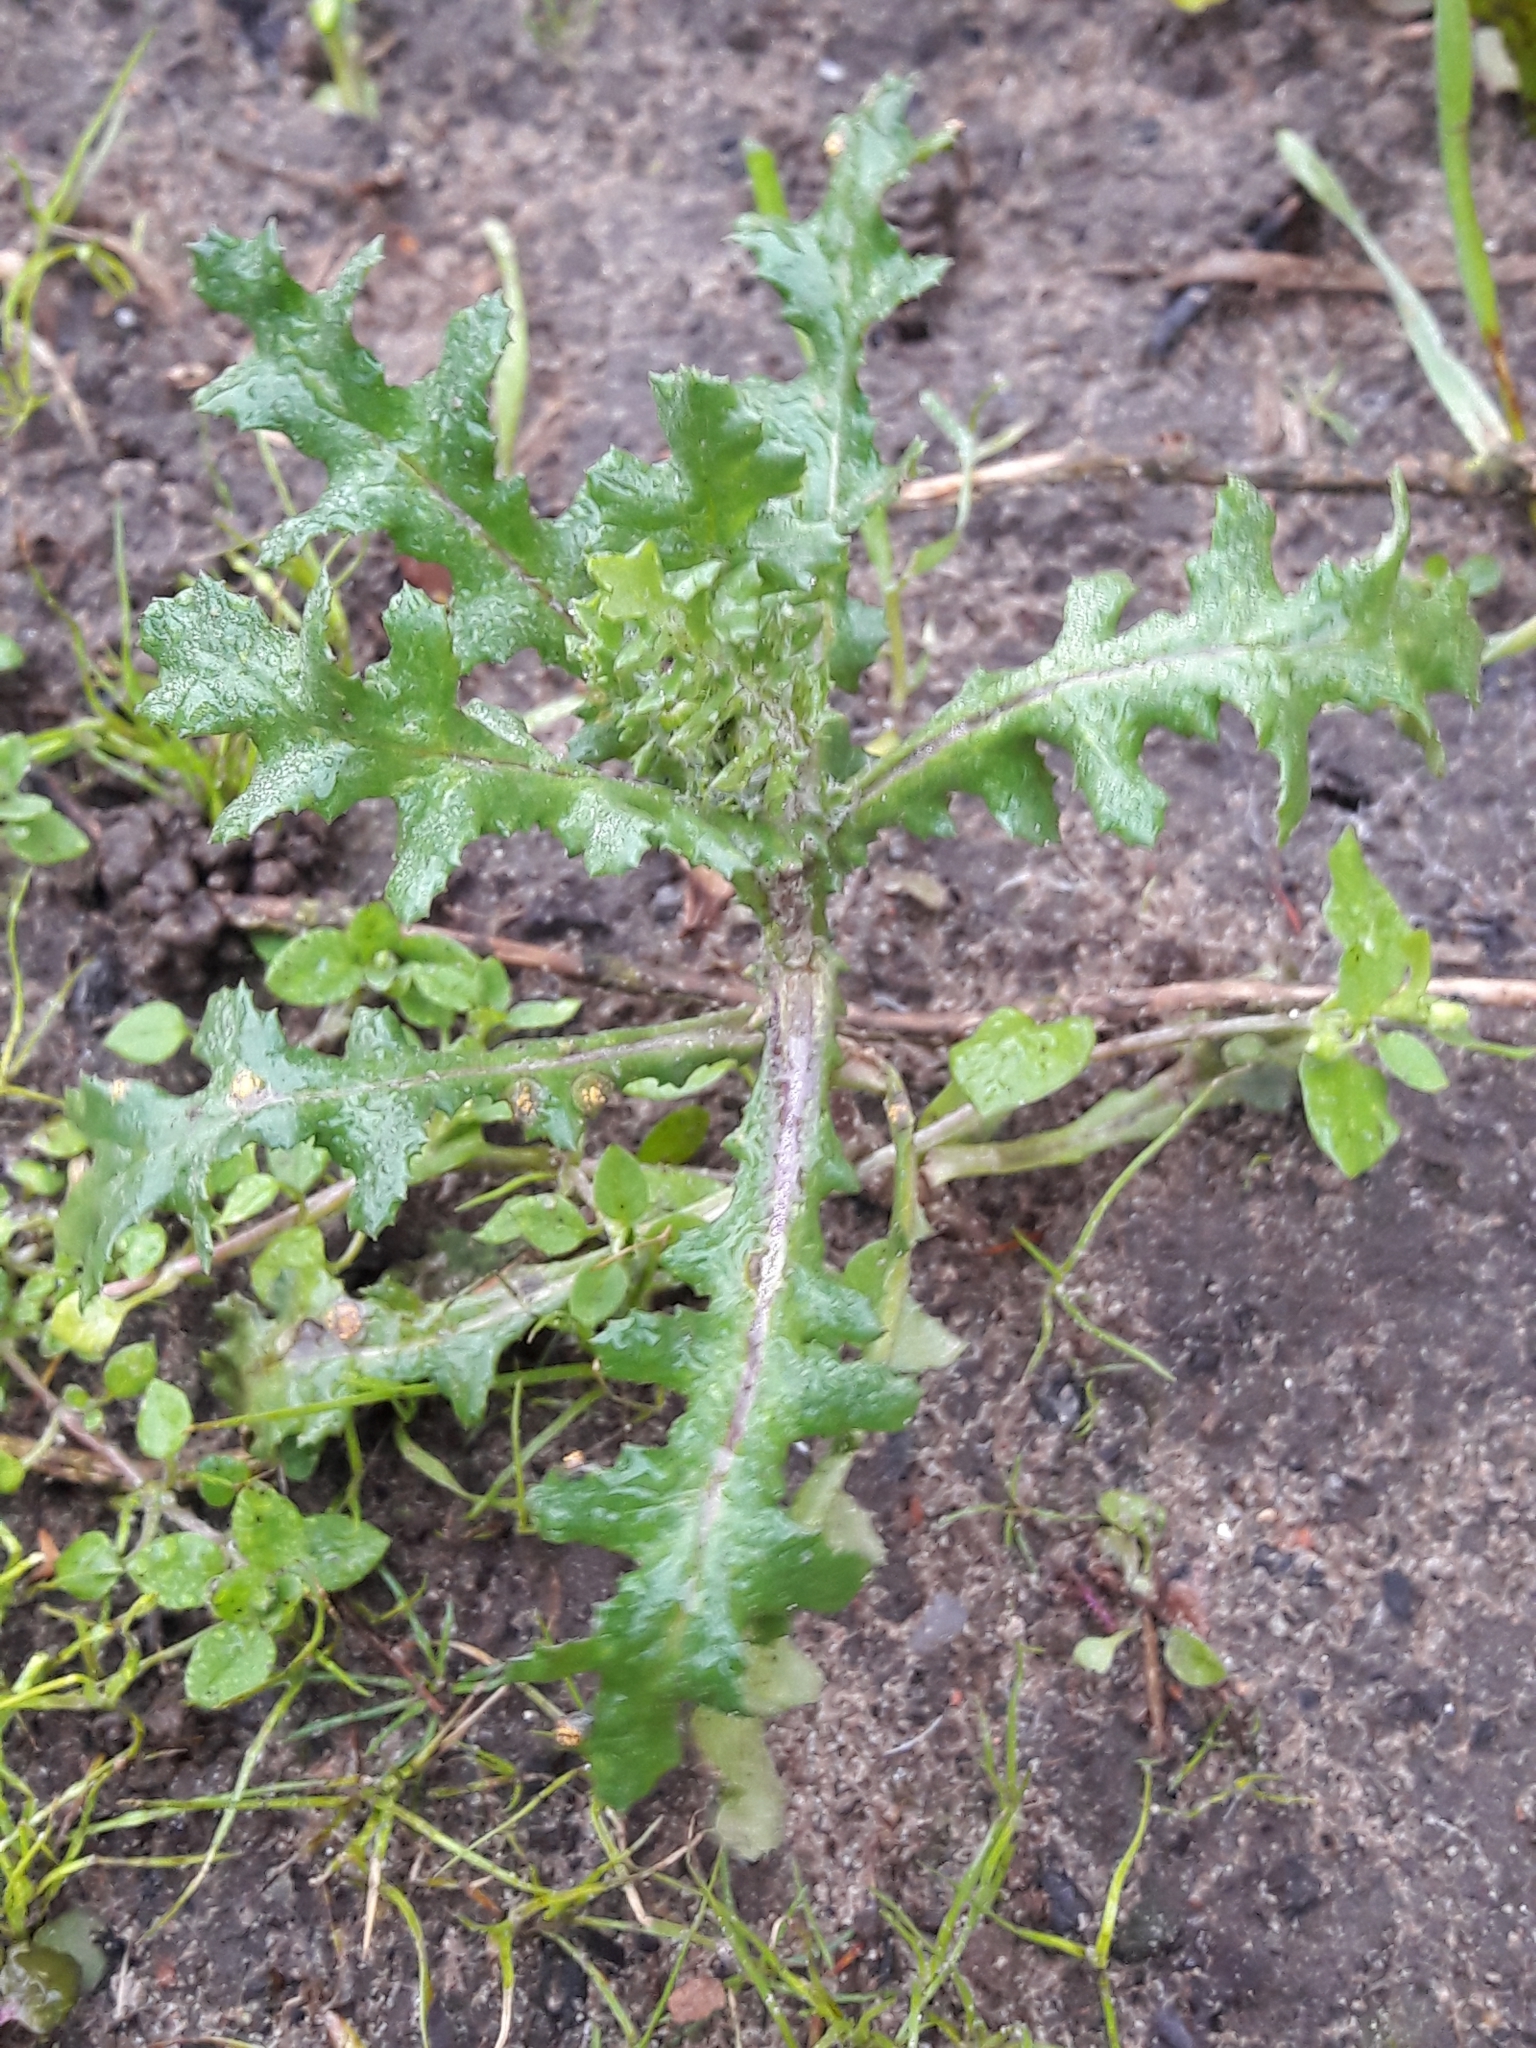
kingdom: Plantae
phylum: Tracheophyta
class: Magnoliopsida
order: Asterales
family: Asteraceae
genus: Senecio
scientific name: Senecio vulgaris
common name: Old-man-in-the-spring
